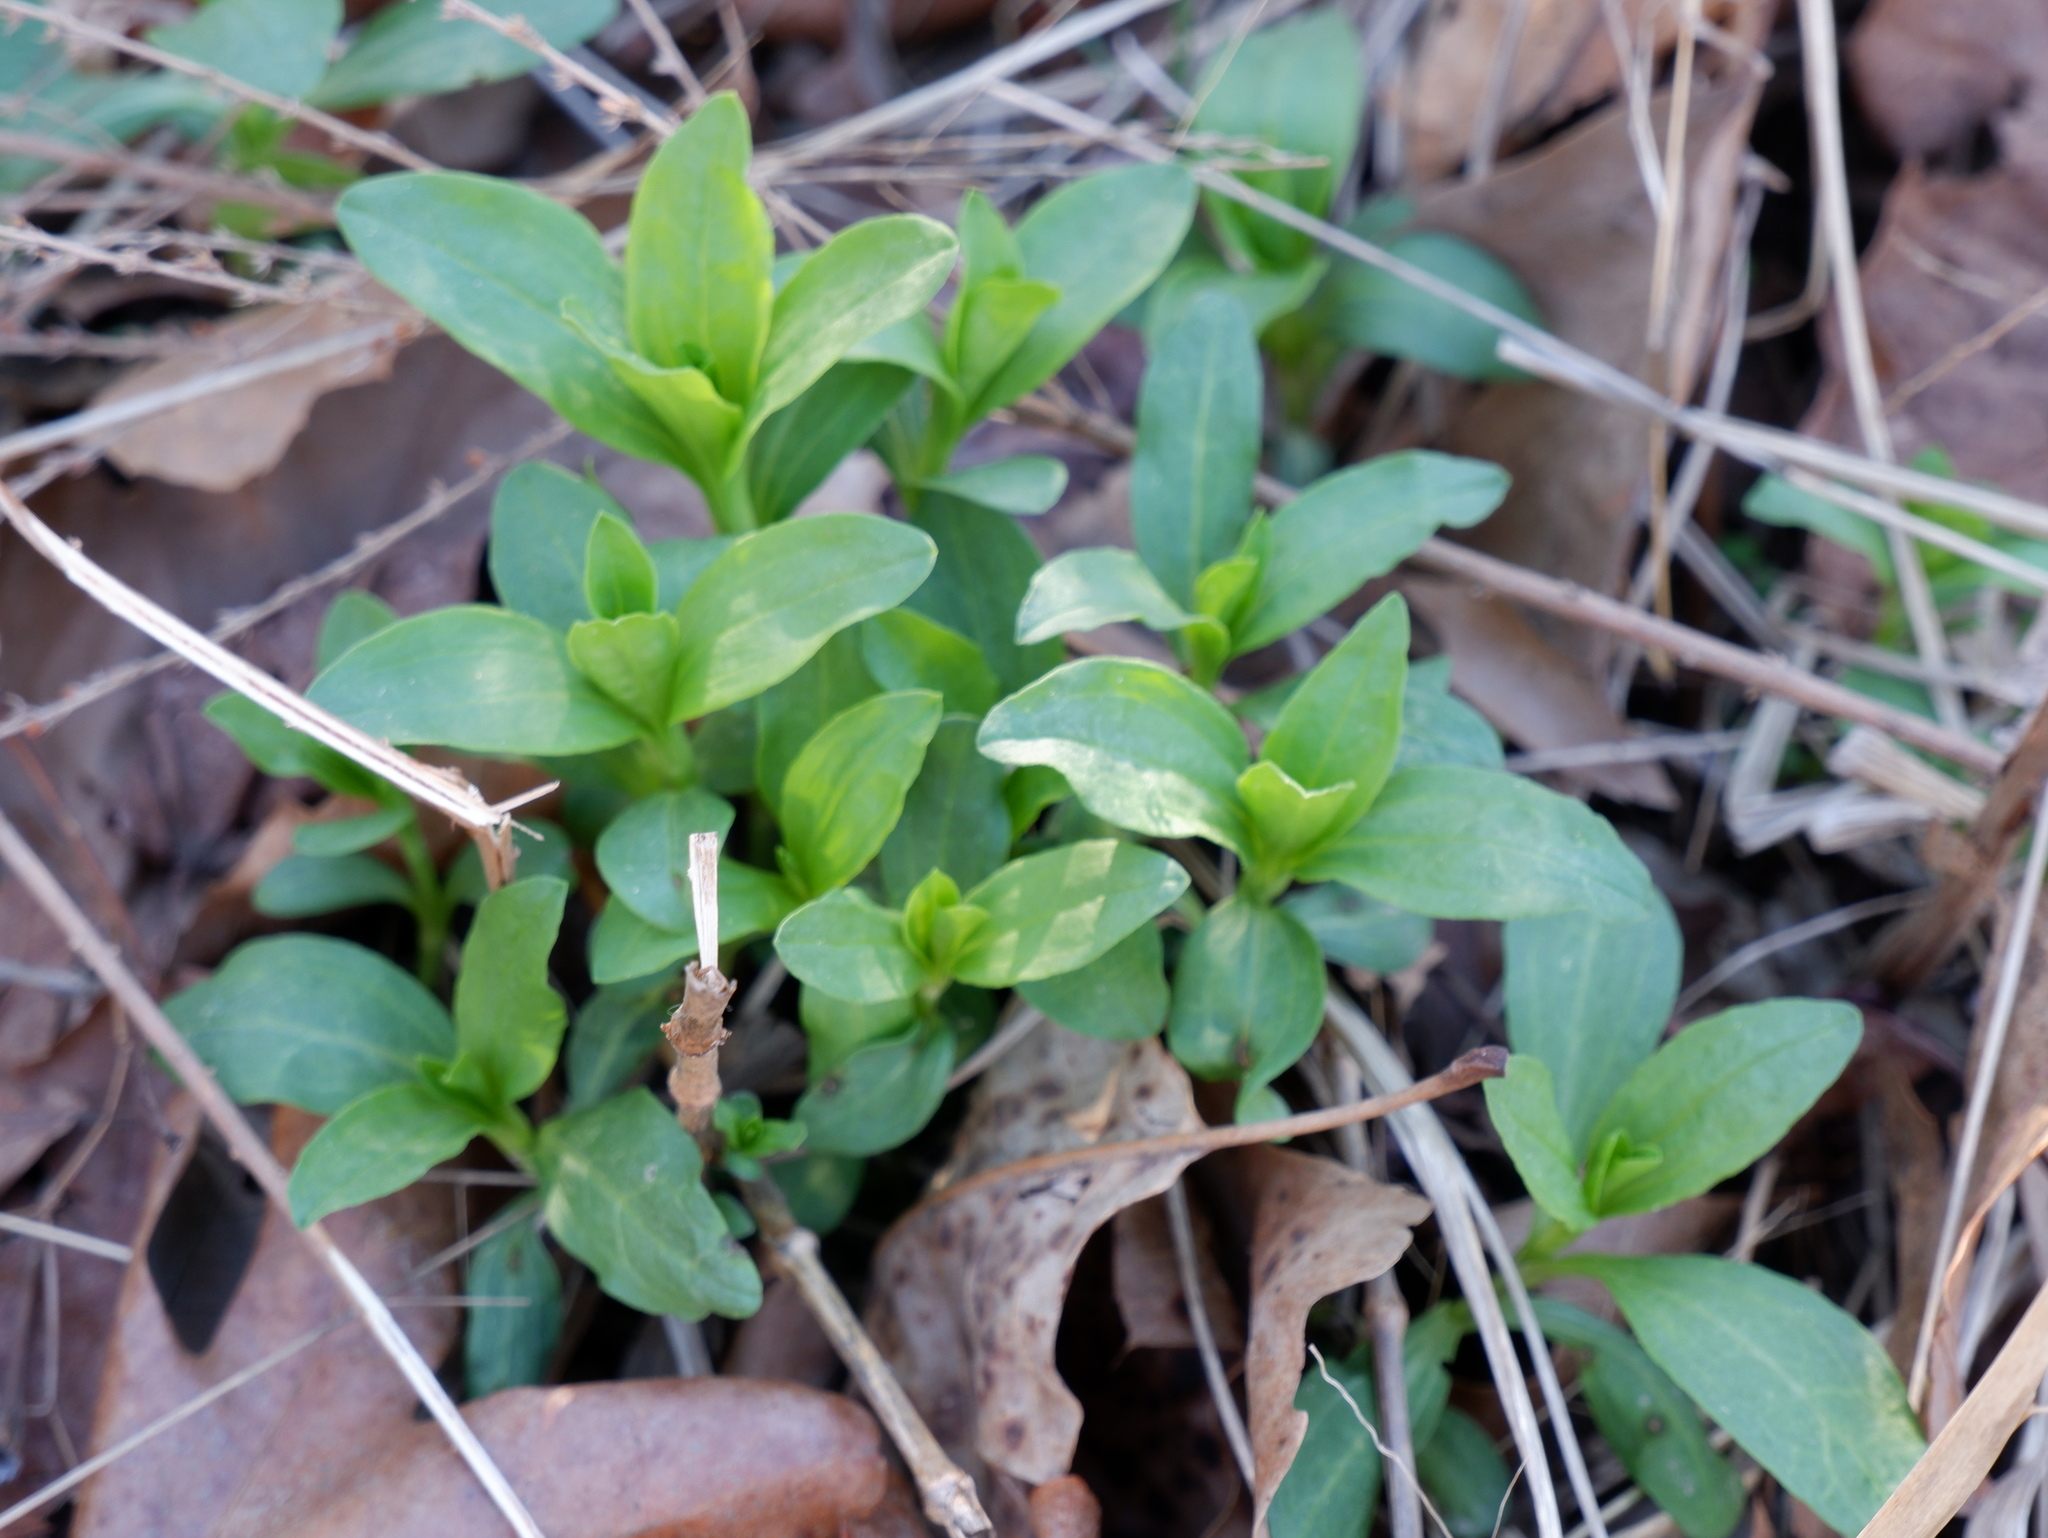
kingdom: Plantae
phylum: Tracheophyta
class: Magnoliopsida
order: Caryophyllales
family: Caryophyllaceae
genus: Saponaria
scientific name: Saponaria officinalis
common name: Soapwort
